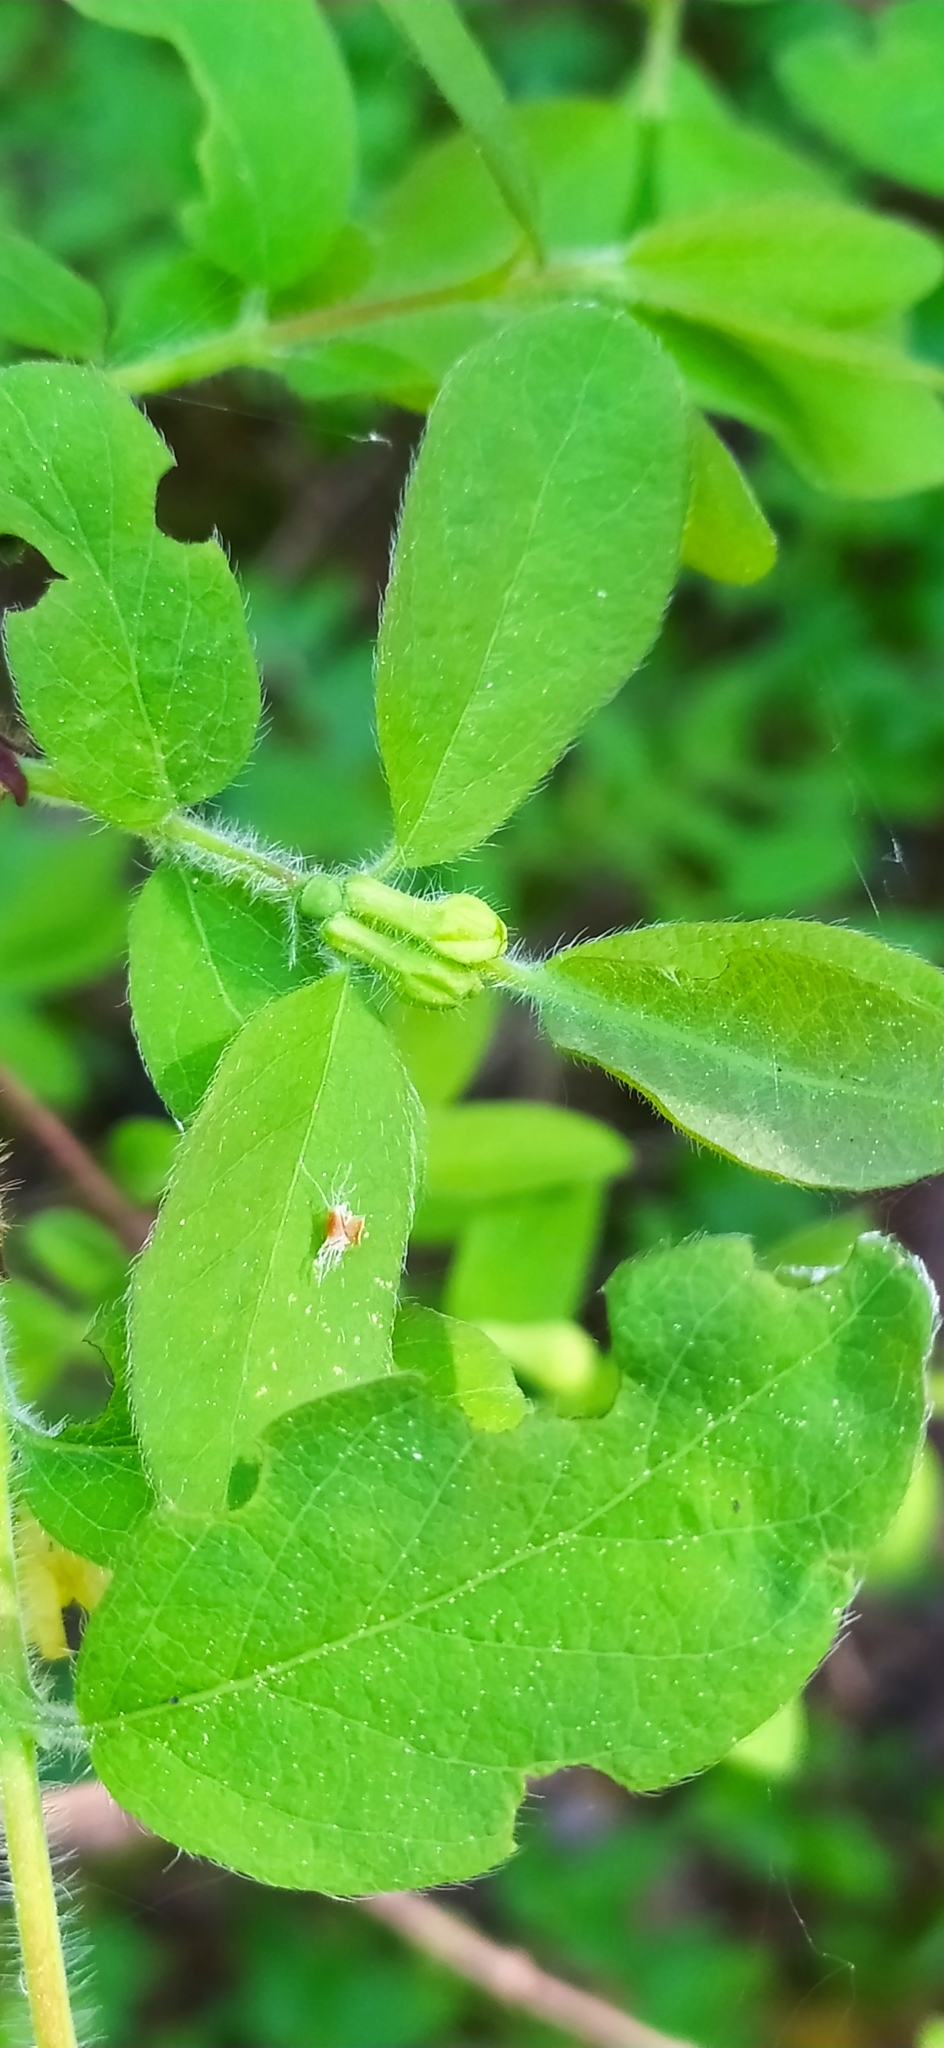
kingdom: Plantae
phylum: Tracheophyta
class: Magnoliopsida
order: Dipsacales
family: Caprifoliaceae
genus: Lonicera
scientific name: Lonicera caerulea
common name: Blue honeysuckle
